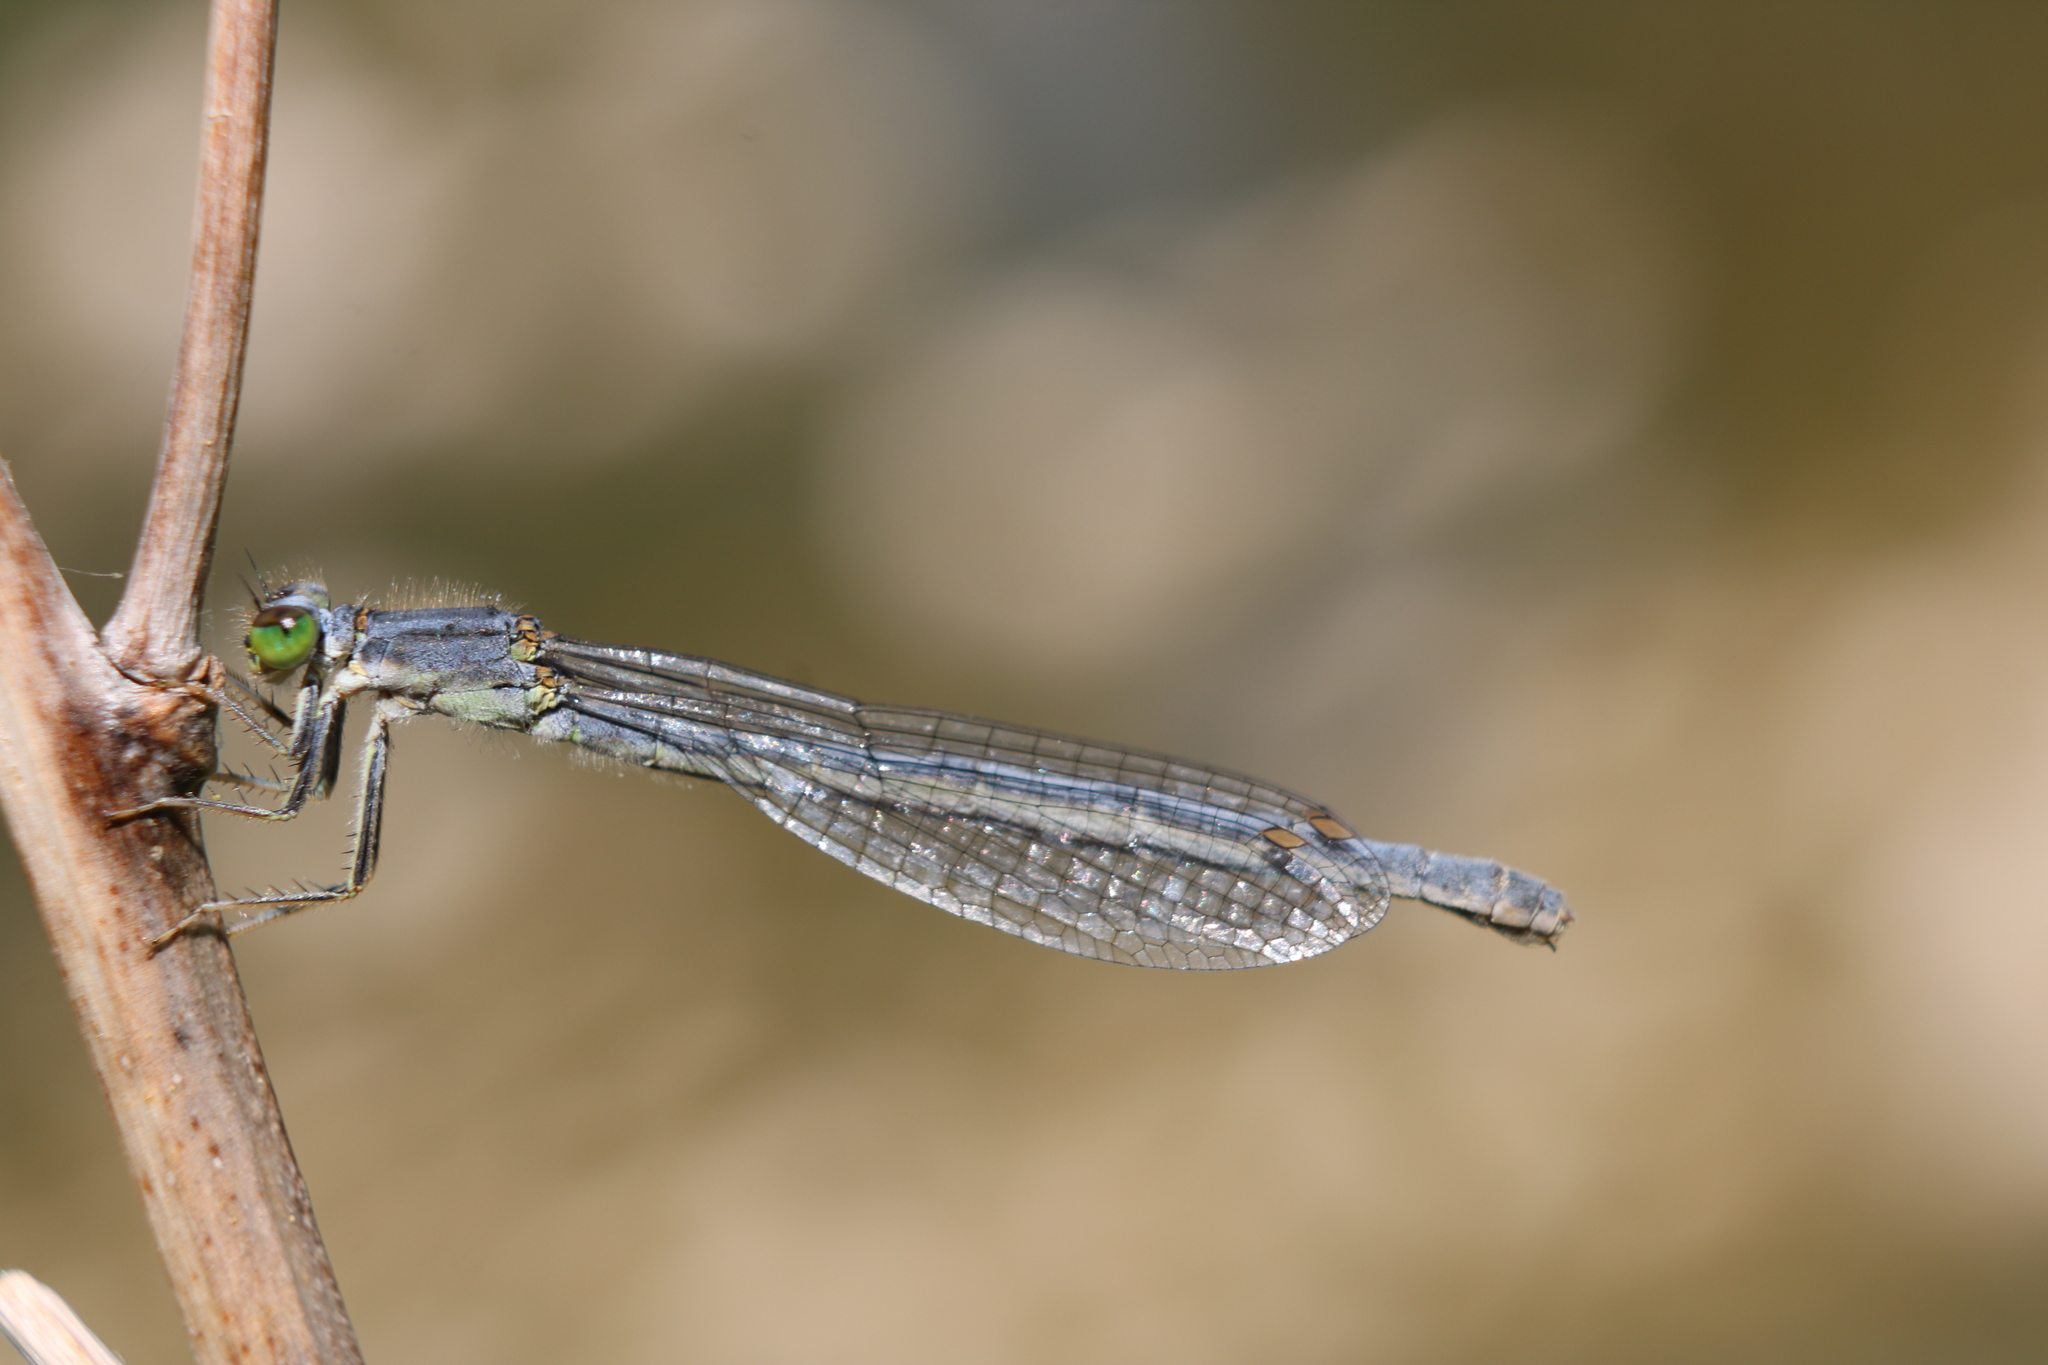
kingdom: Animalia
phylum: Arthropoda
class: Insecta
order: Odonata
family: Coenagrionidae
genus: Ischnura
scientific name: Ischnura verticalis
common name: Eastern forktail
